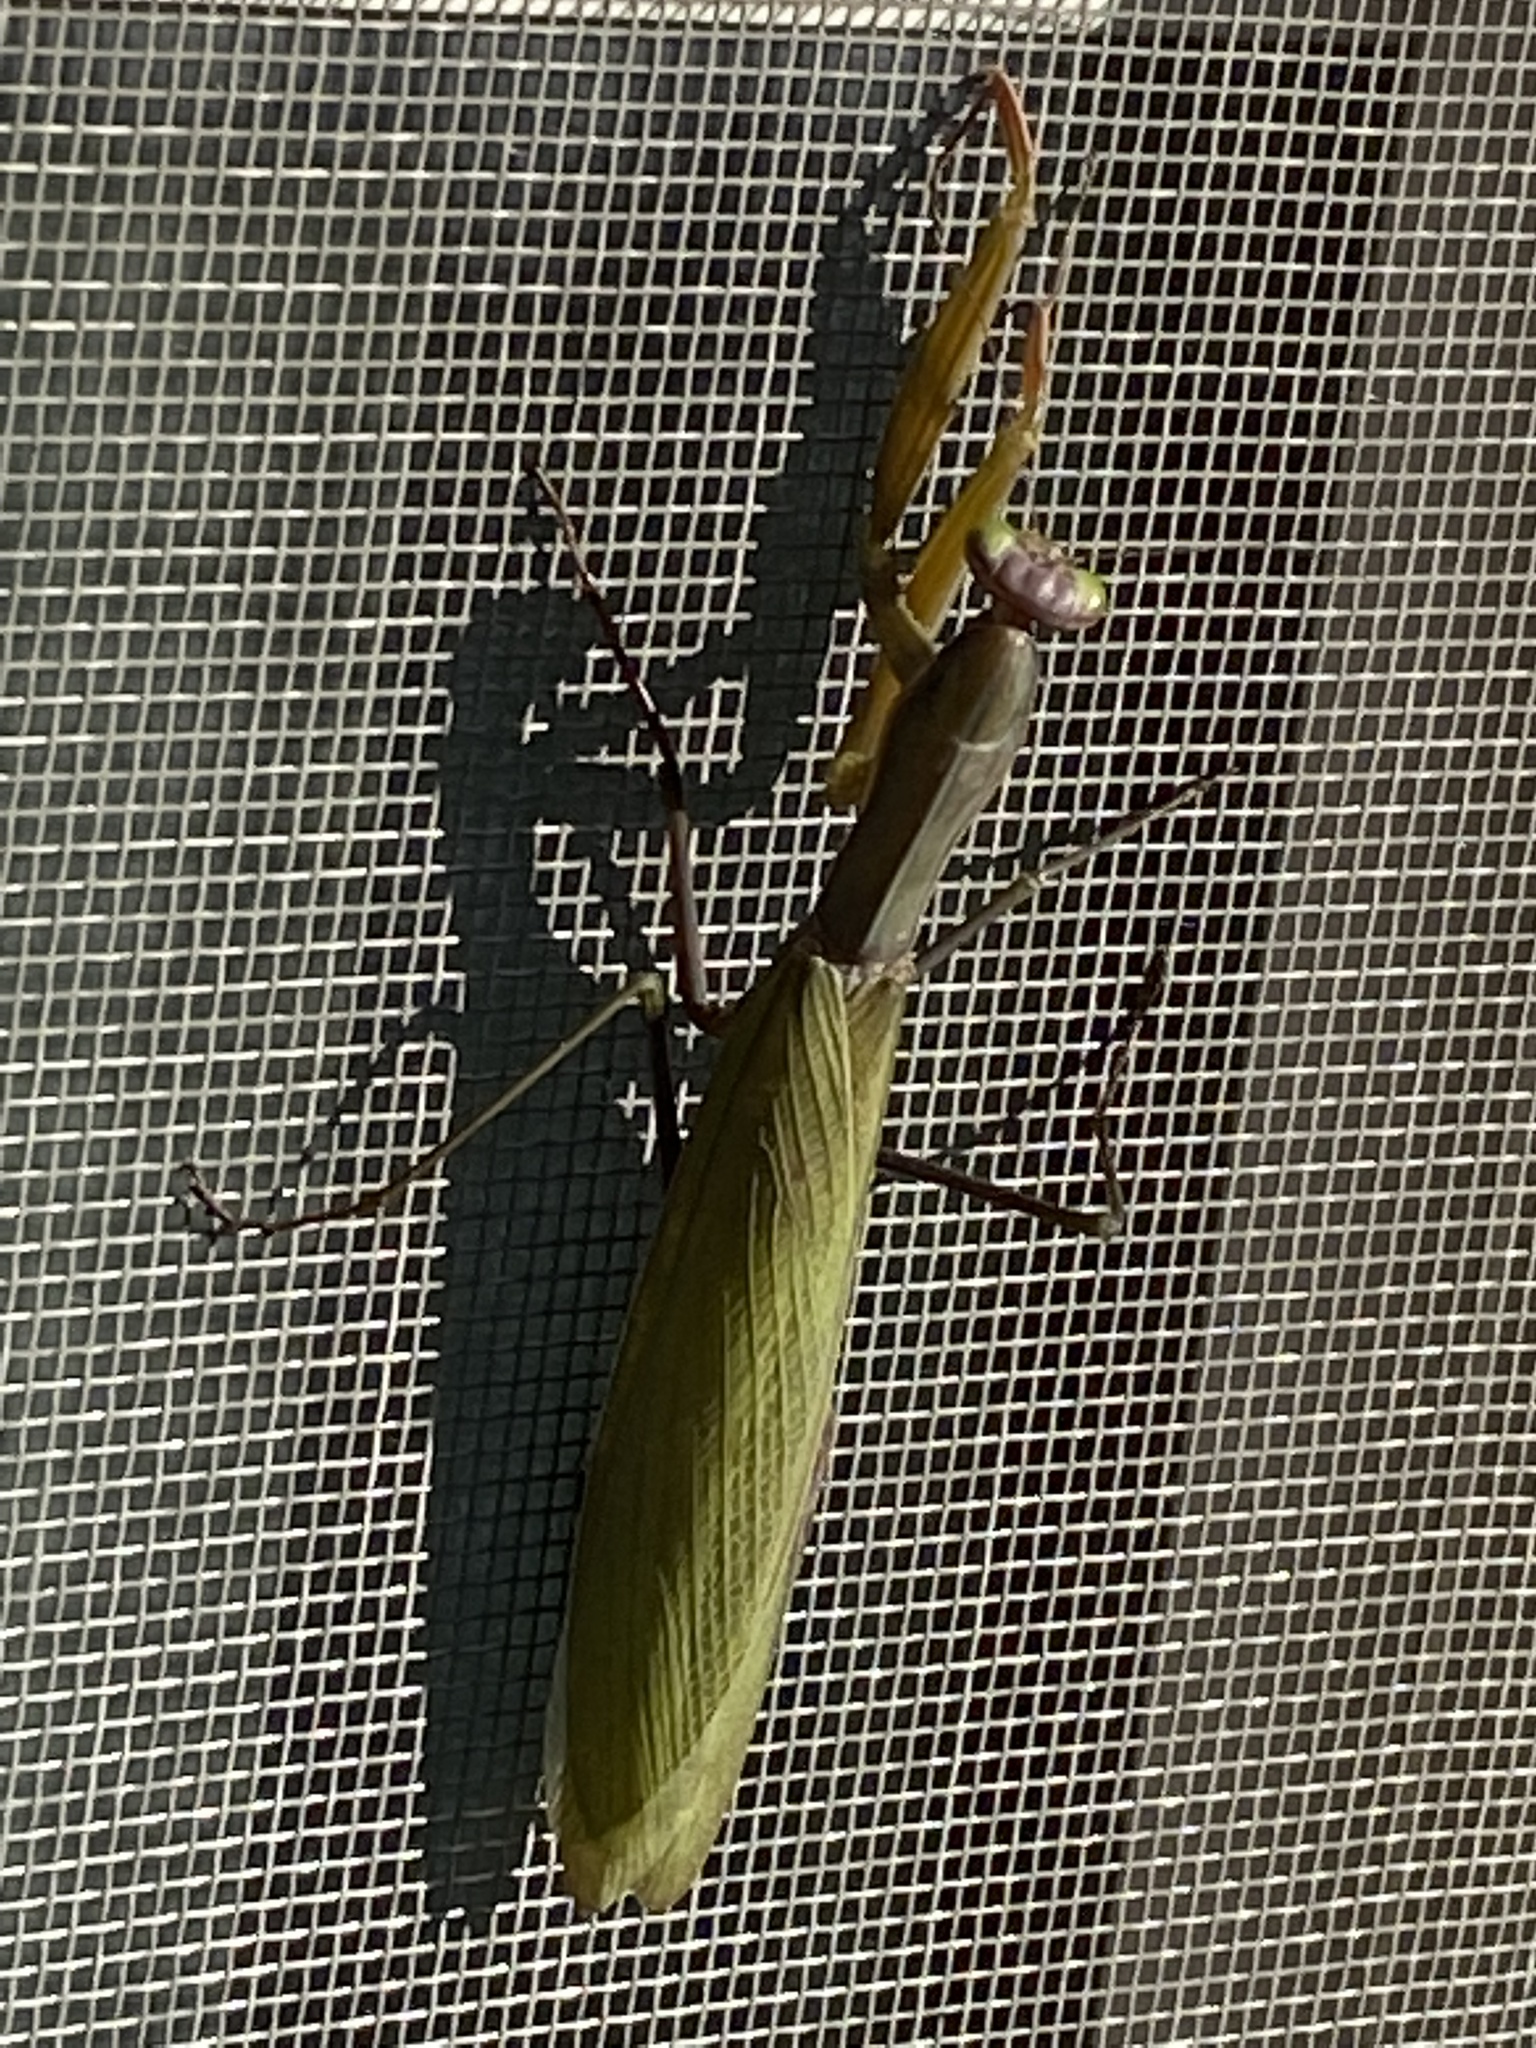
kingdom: Animalia
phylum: Arthropoda
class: Insecta
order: Mantodea
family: Mantidae
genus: Mantis
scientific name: Mantis religiosa
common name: Praying mantis
